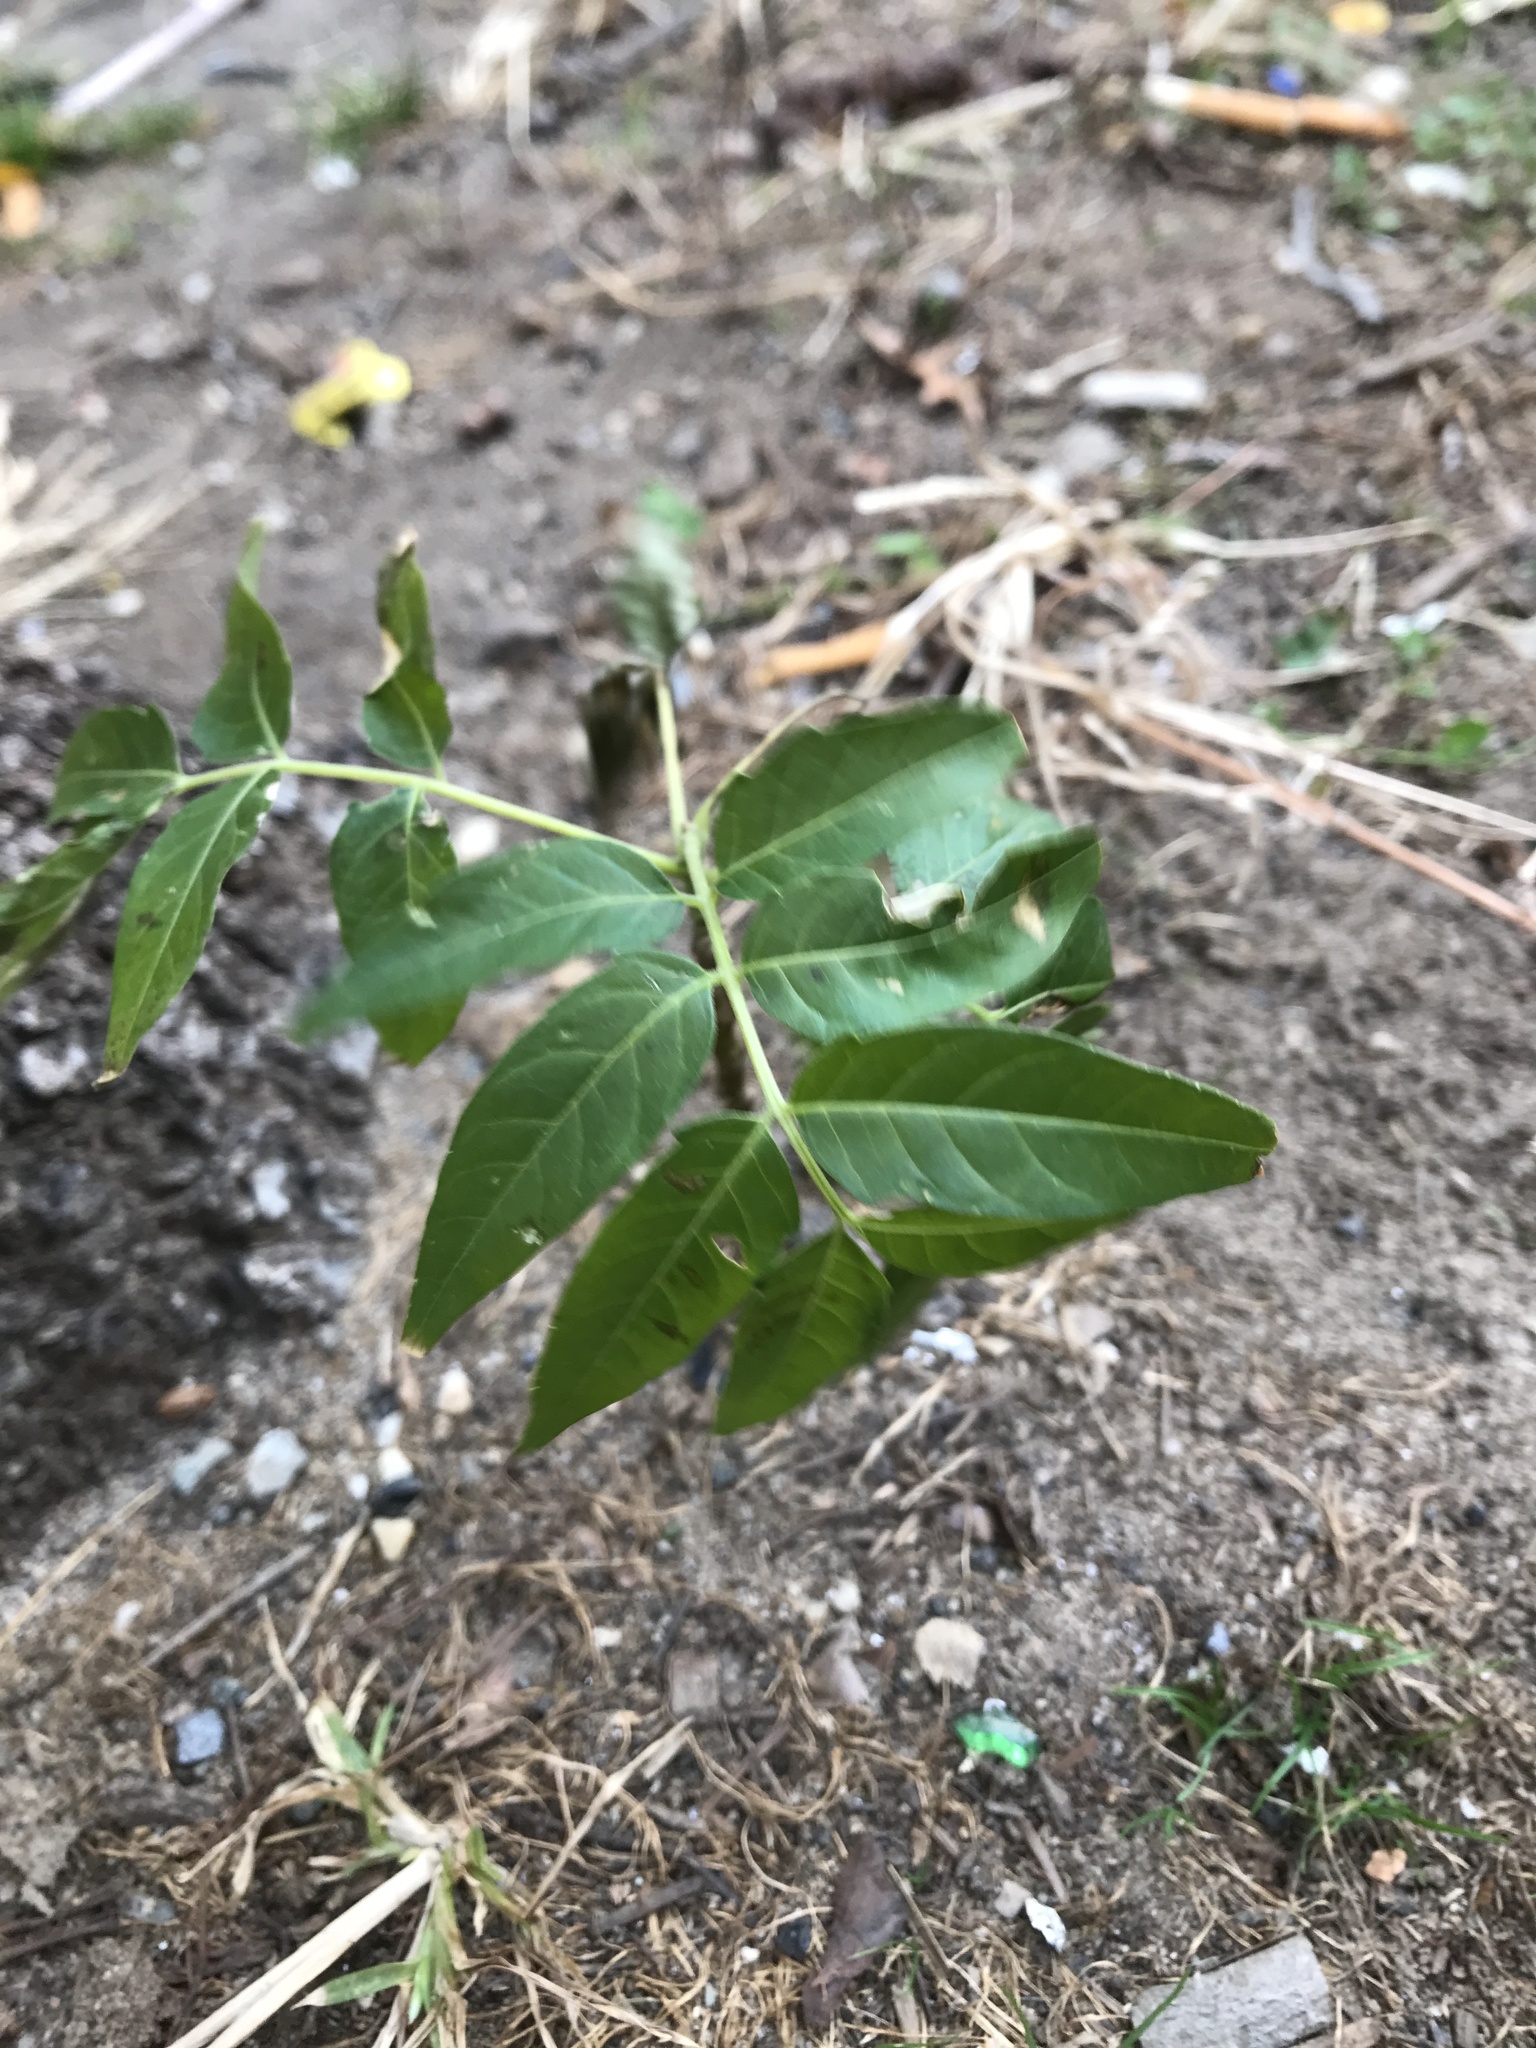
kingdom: Plantae
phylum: Tracheophyta
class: Magnoliopsida
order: Sapindales
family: Simaroubaceae
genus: Ailanthus
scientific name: Ailanthus altissima
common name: Tree-of-heaven
